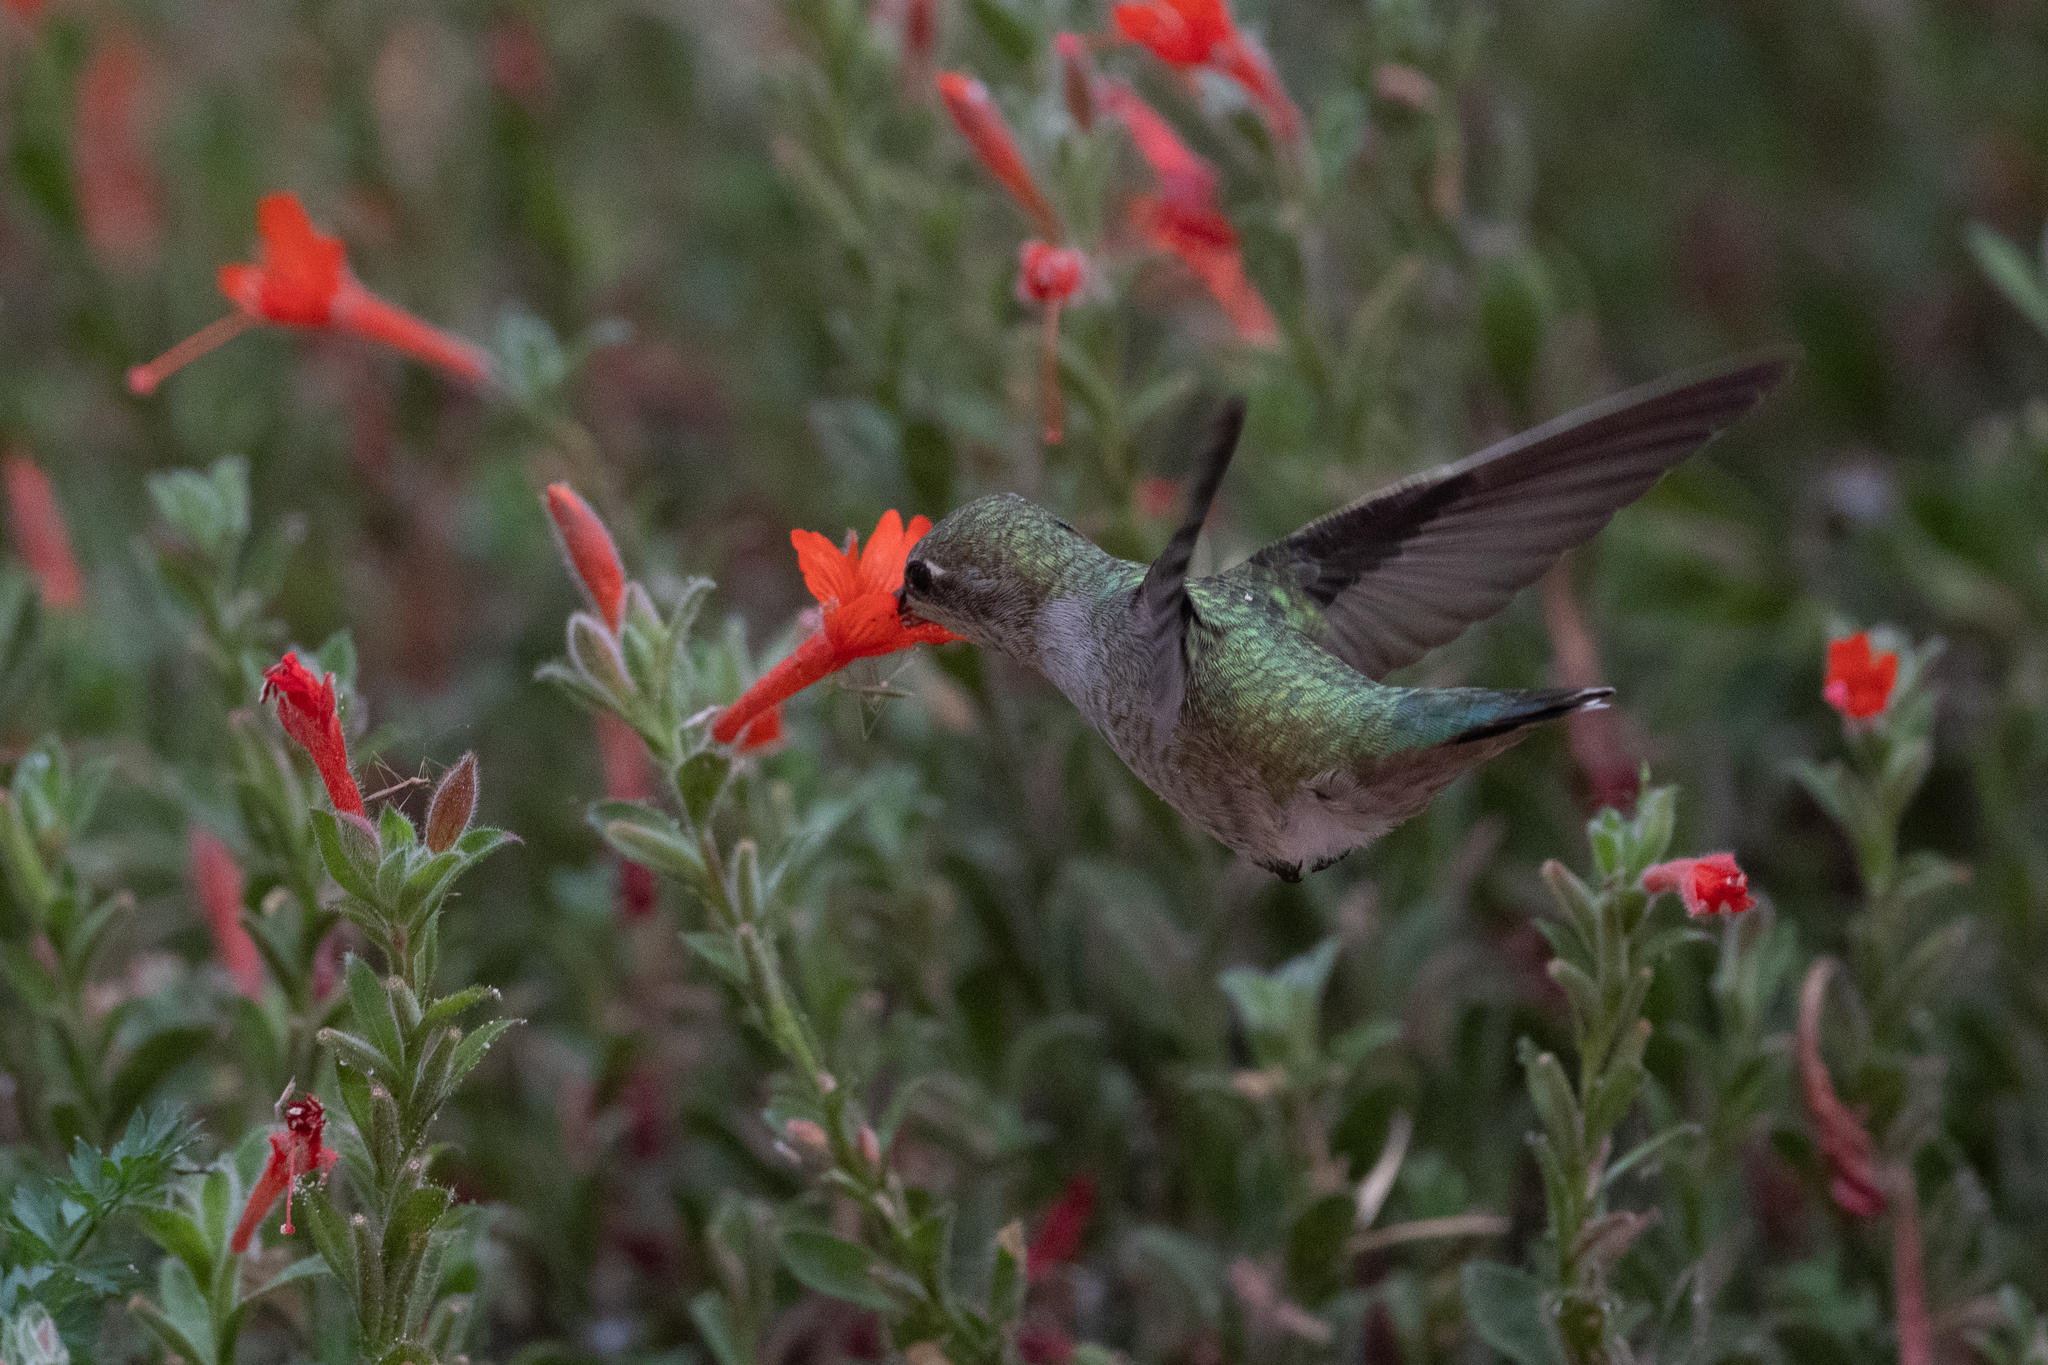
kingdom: Animalia
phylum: Chordata
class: Aves
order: Apodiformes
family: Trochilidae
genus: Calypte
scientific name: Calypte anna
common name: Anna's hummingbird
